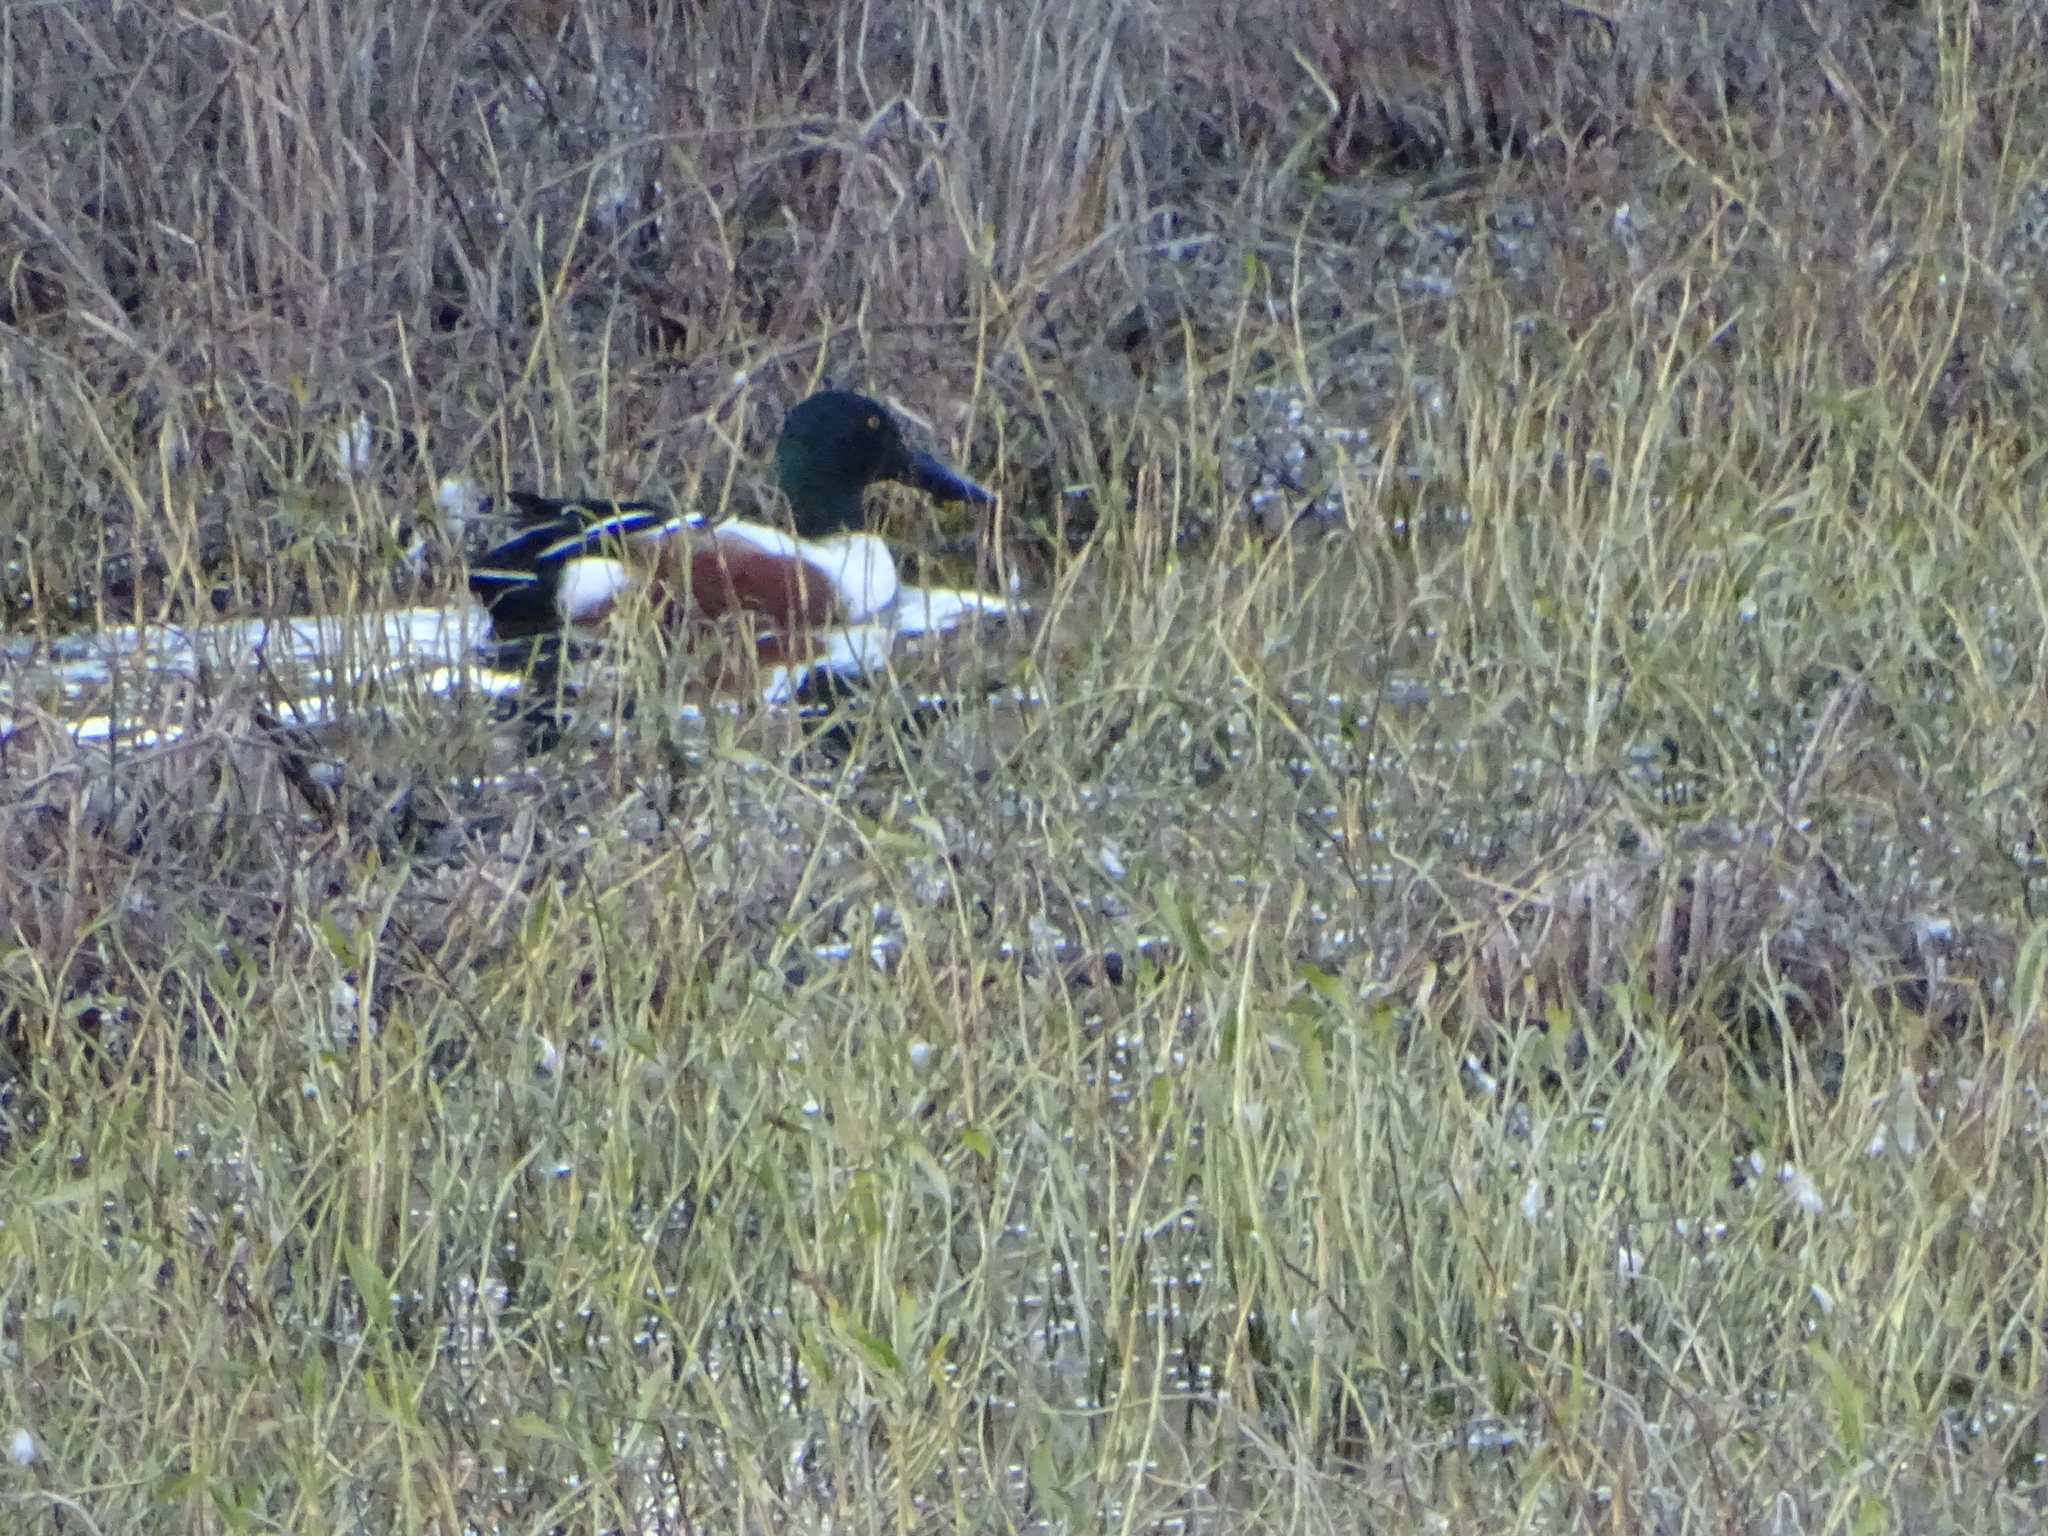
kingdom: Animalia
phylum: Chordata
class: Aves
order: Anseriformes
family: Anatidae
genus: Spatula
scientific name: Spatula clypeata
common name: Northern shoveler
